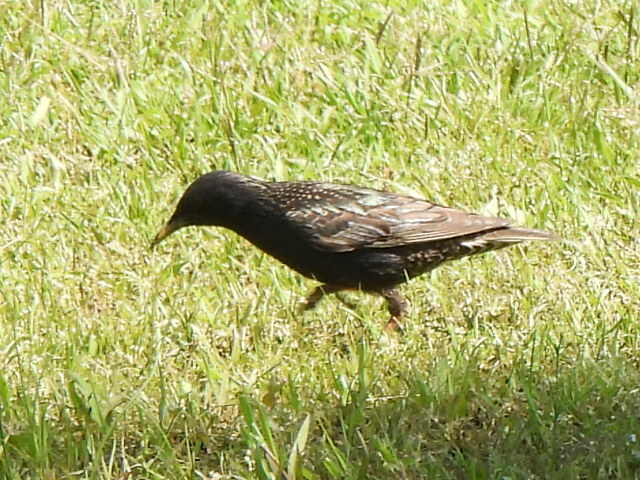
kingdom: Animalia
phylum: Chordata
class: Aves
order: Passeriformes
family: Sturnidae
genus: Sturnus
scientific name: Sturnus vulgaris
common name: Common starling
